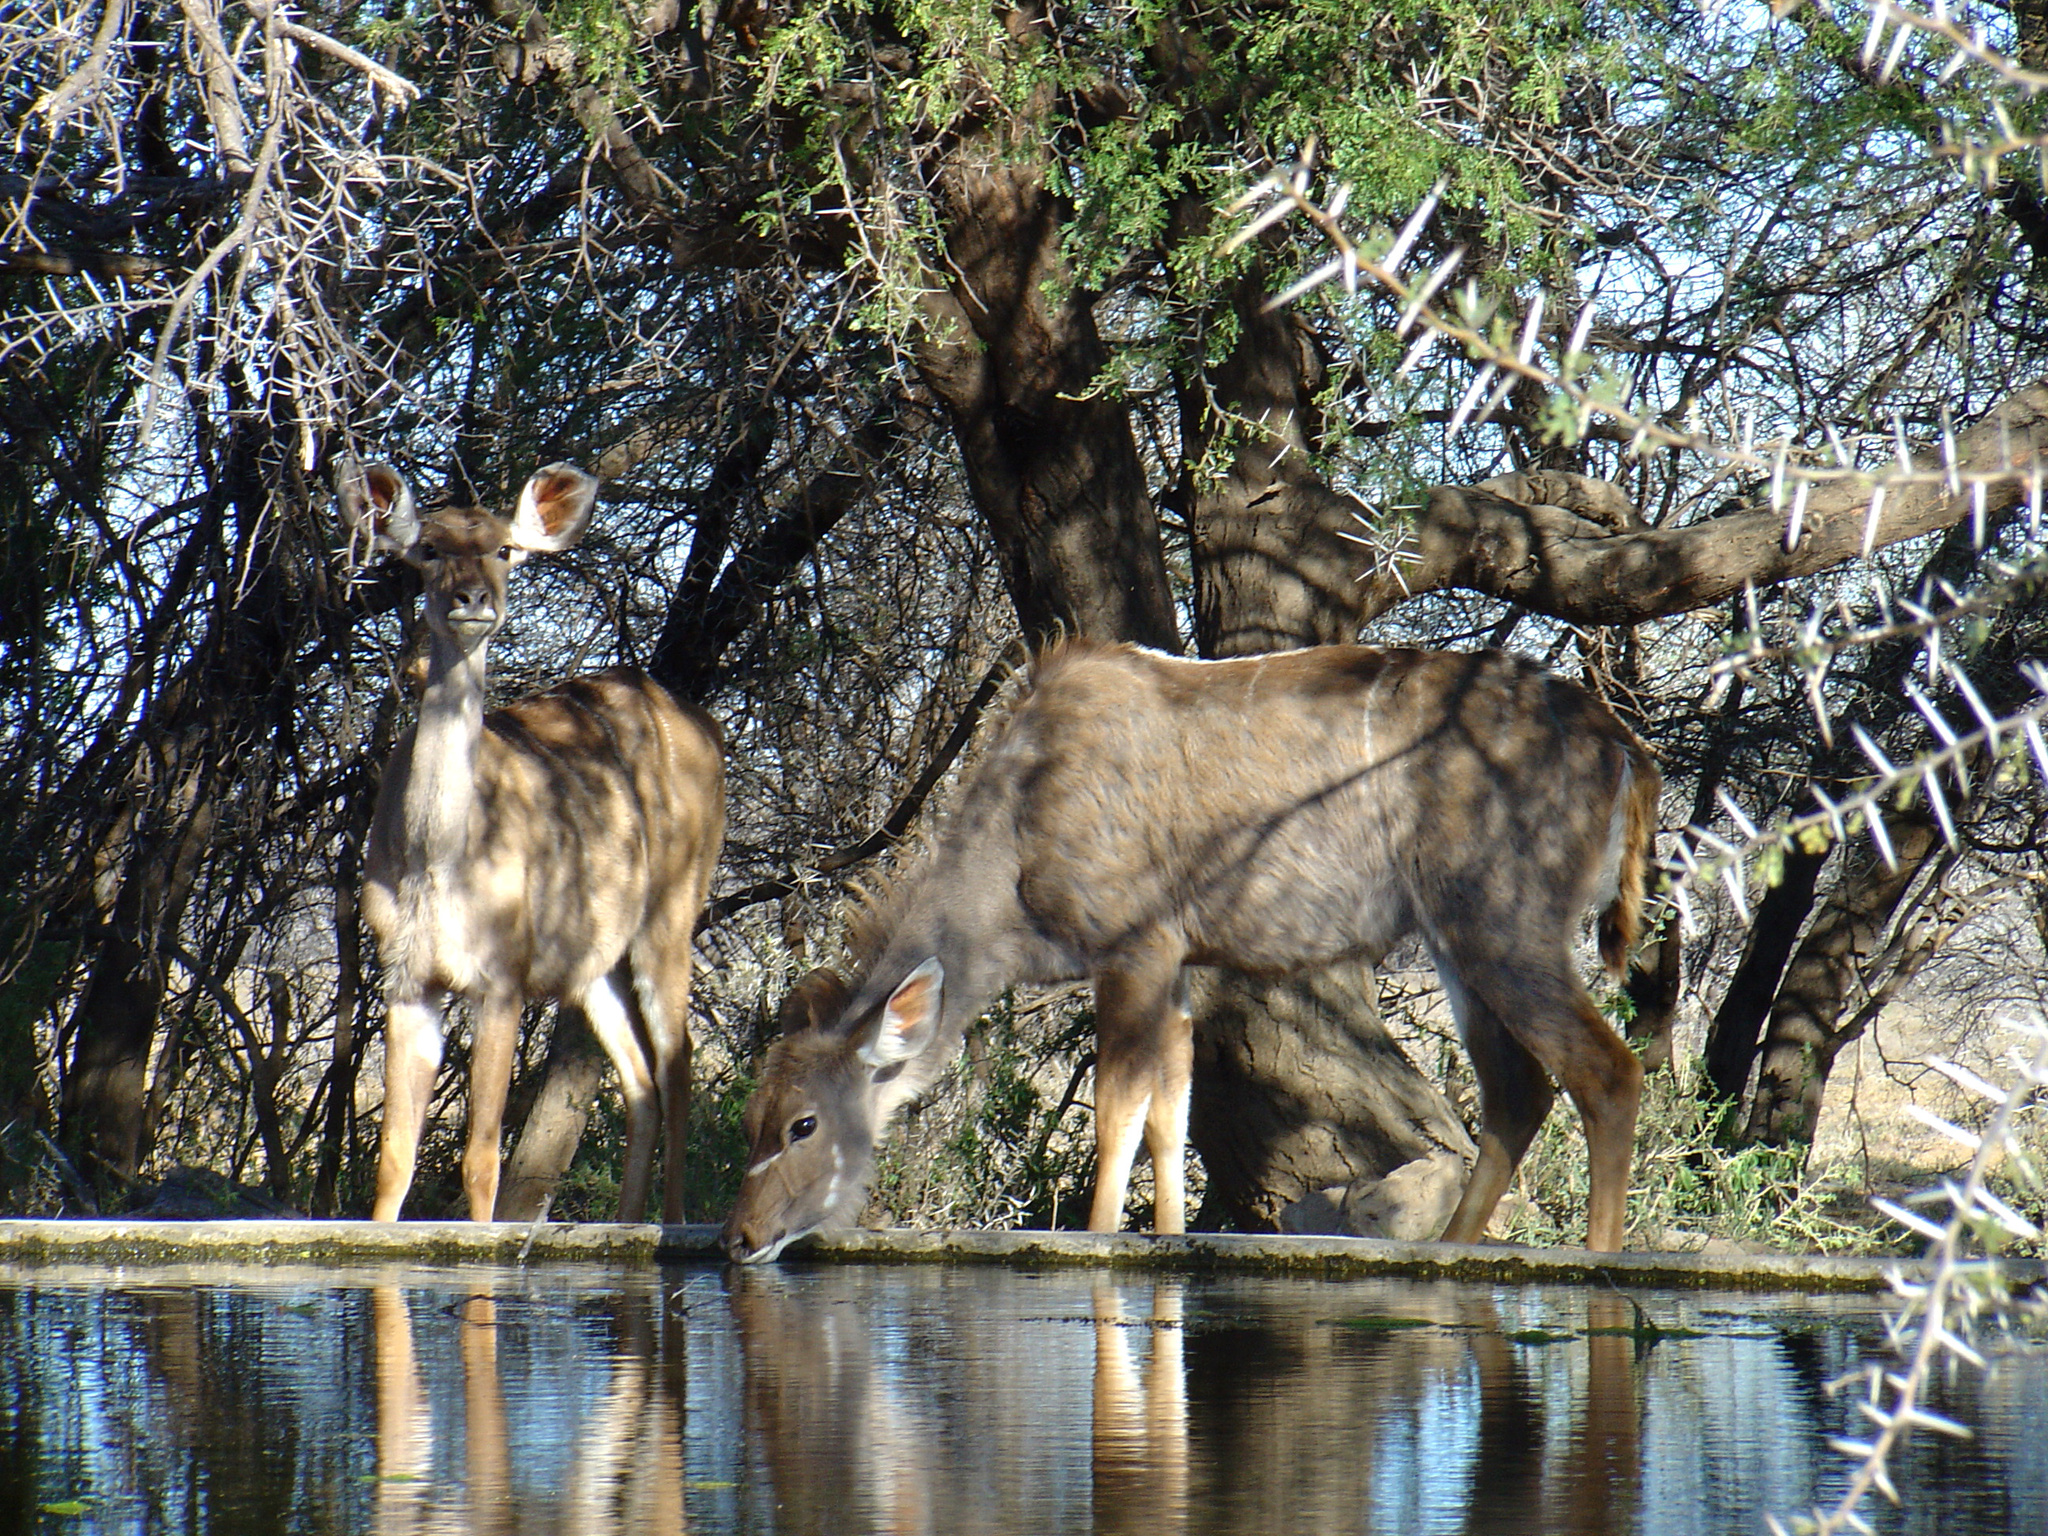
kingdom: Animalia
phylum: Chordata
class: Mammalia
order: Artiodactyla
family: Bovidae
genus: Tragelaphus
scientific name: Tragelaphus strepsiceros
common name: Greater kudu
